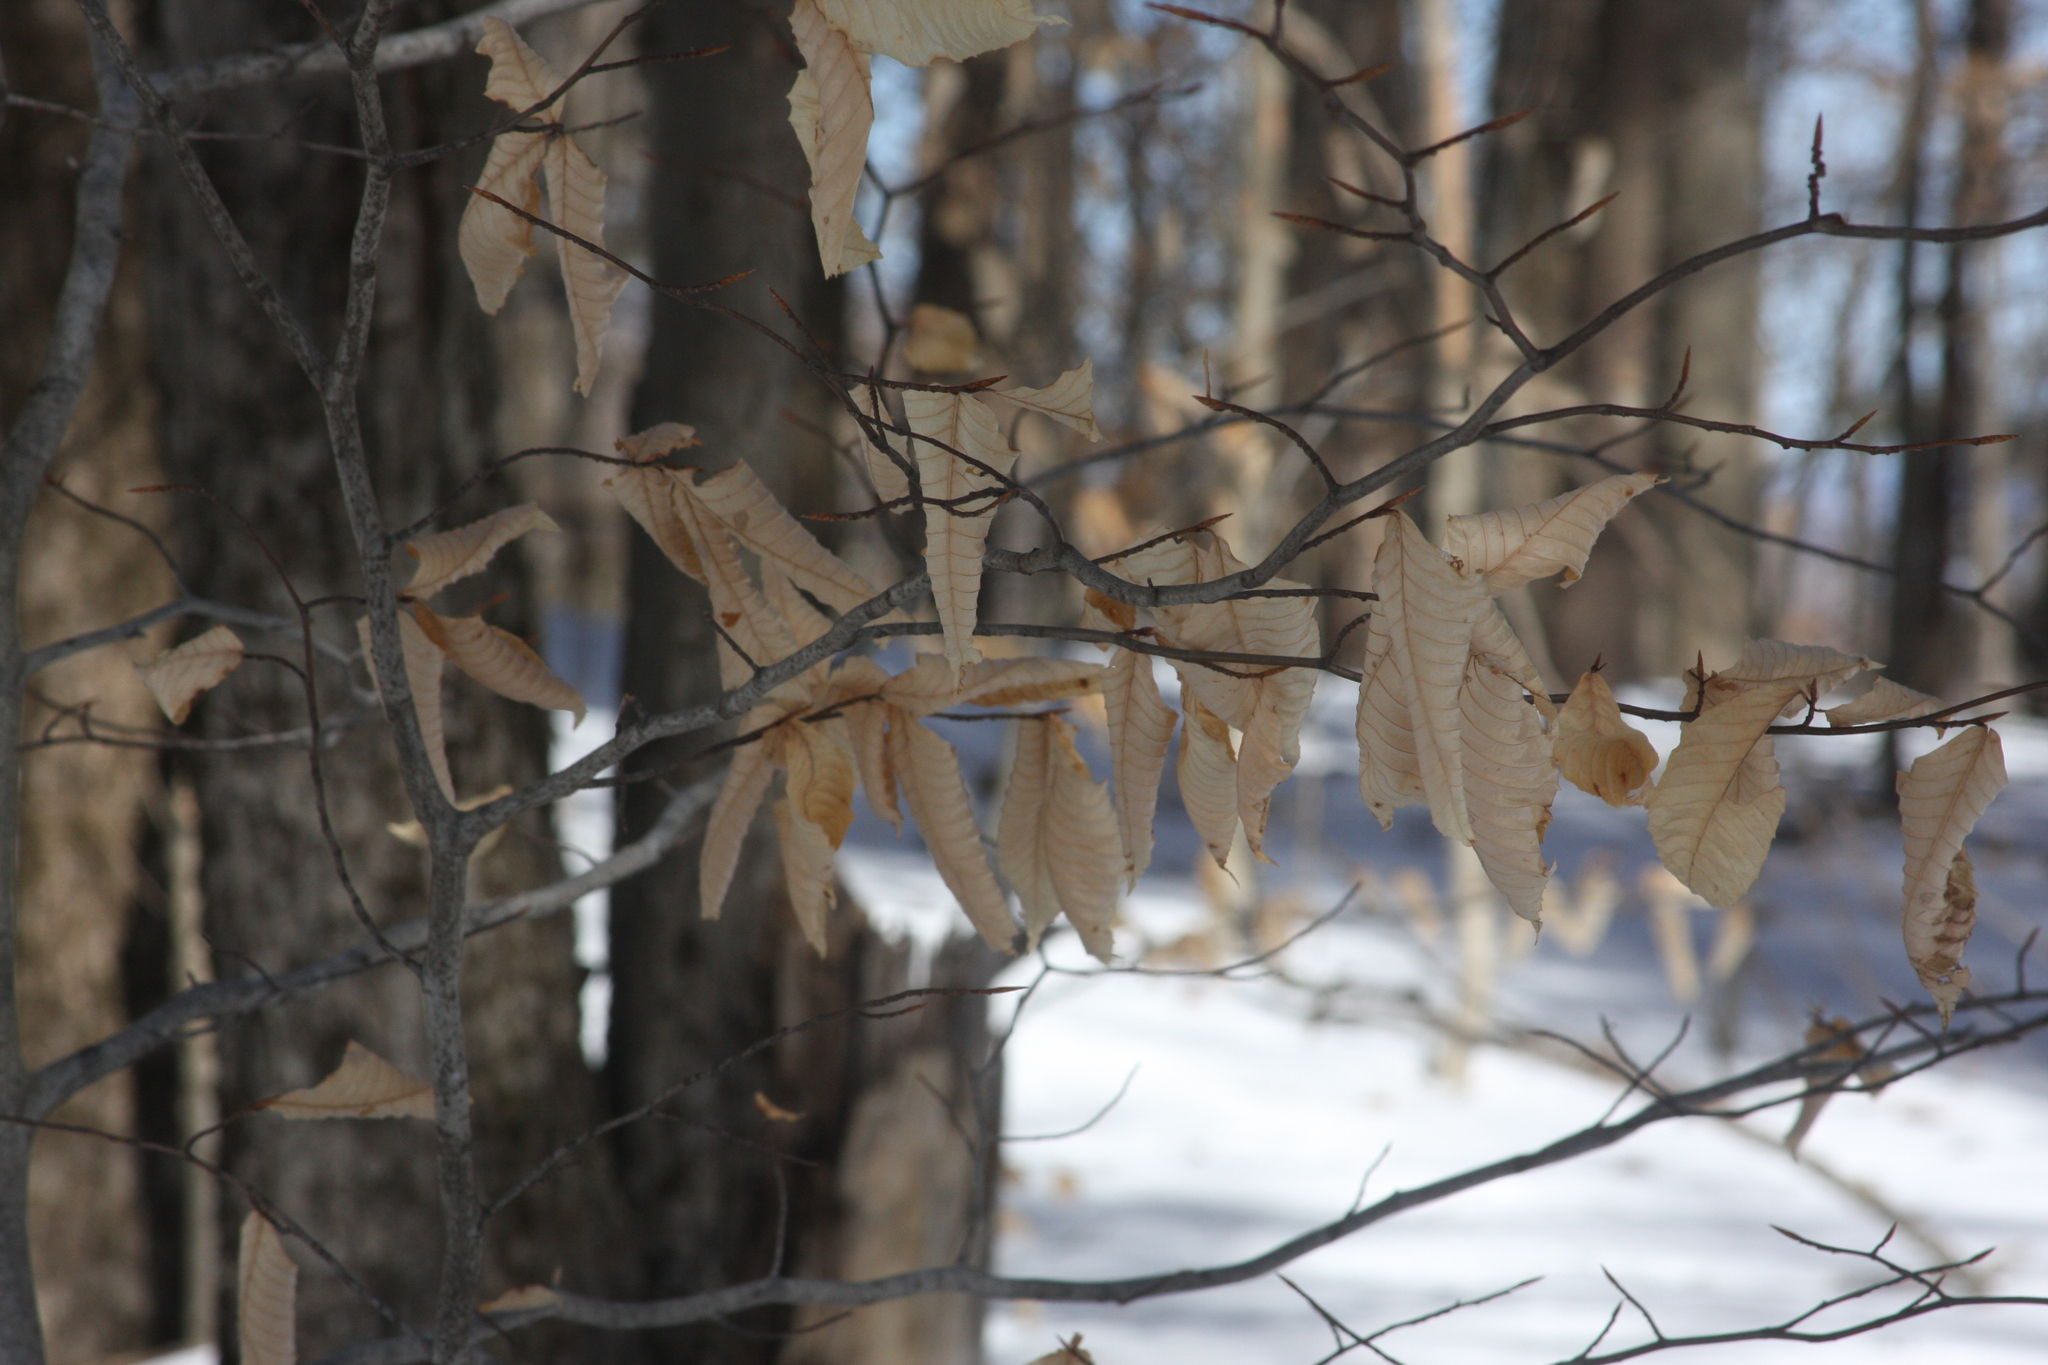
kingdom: Plantae
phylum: Tracheophyta
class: Magnoliopsida
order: Fagales
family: Fagaceae
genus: Fagus
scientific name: Fagus grandifolia
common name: American beech
